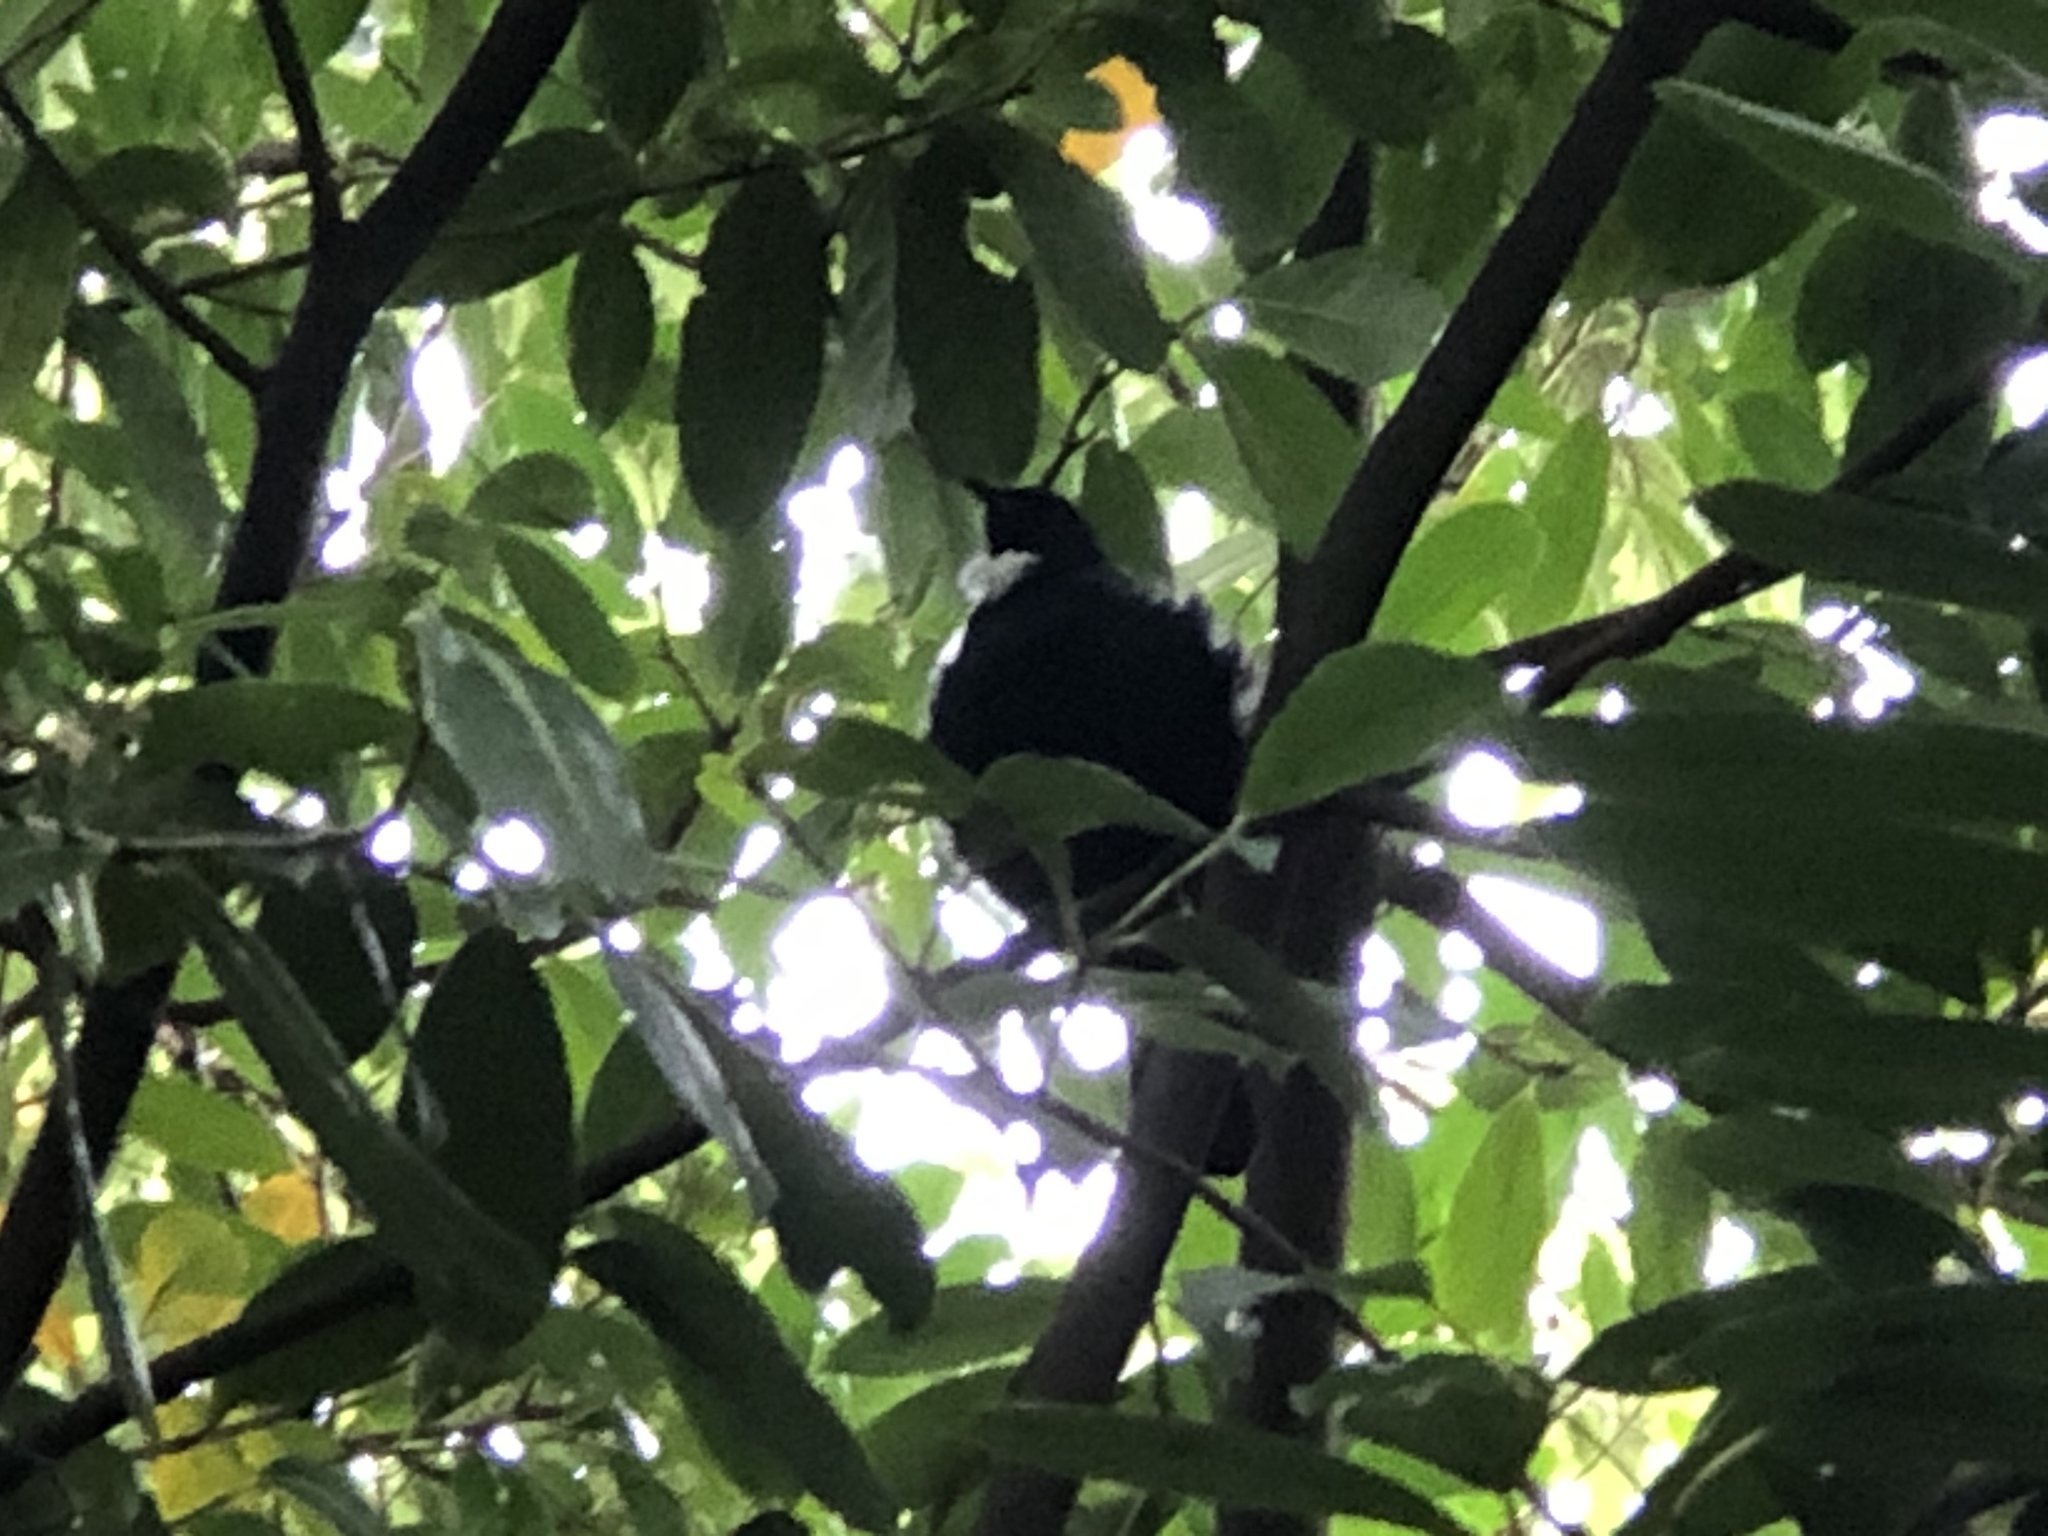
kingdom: Animalia
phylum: Chordata
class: Aves
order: Passeriformes
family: Meliphagidae
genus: Prosthemadera
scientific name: Prosthemadera novaeseelandiae
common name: Tui
